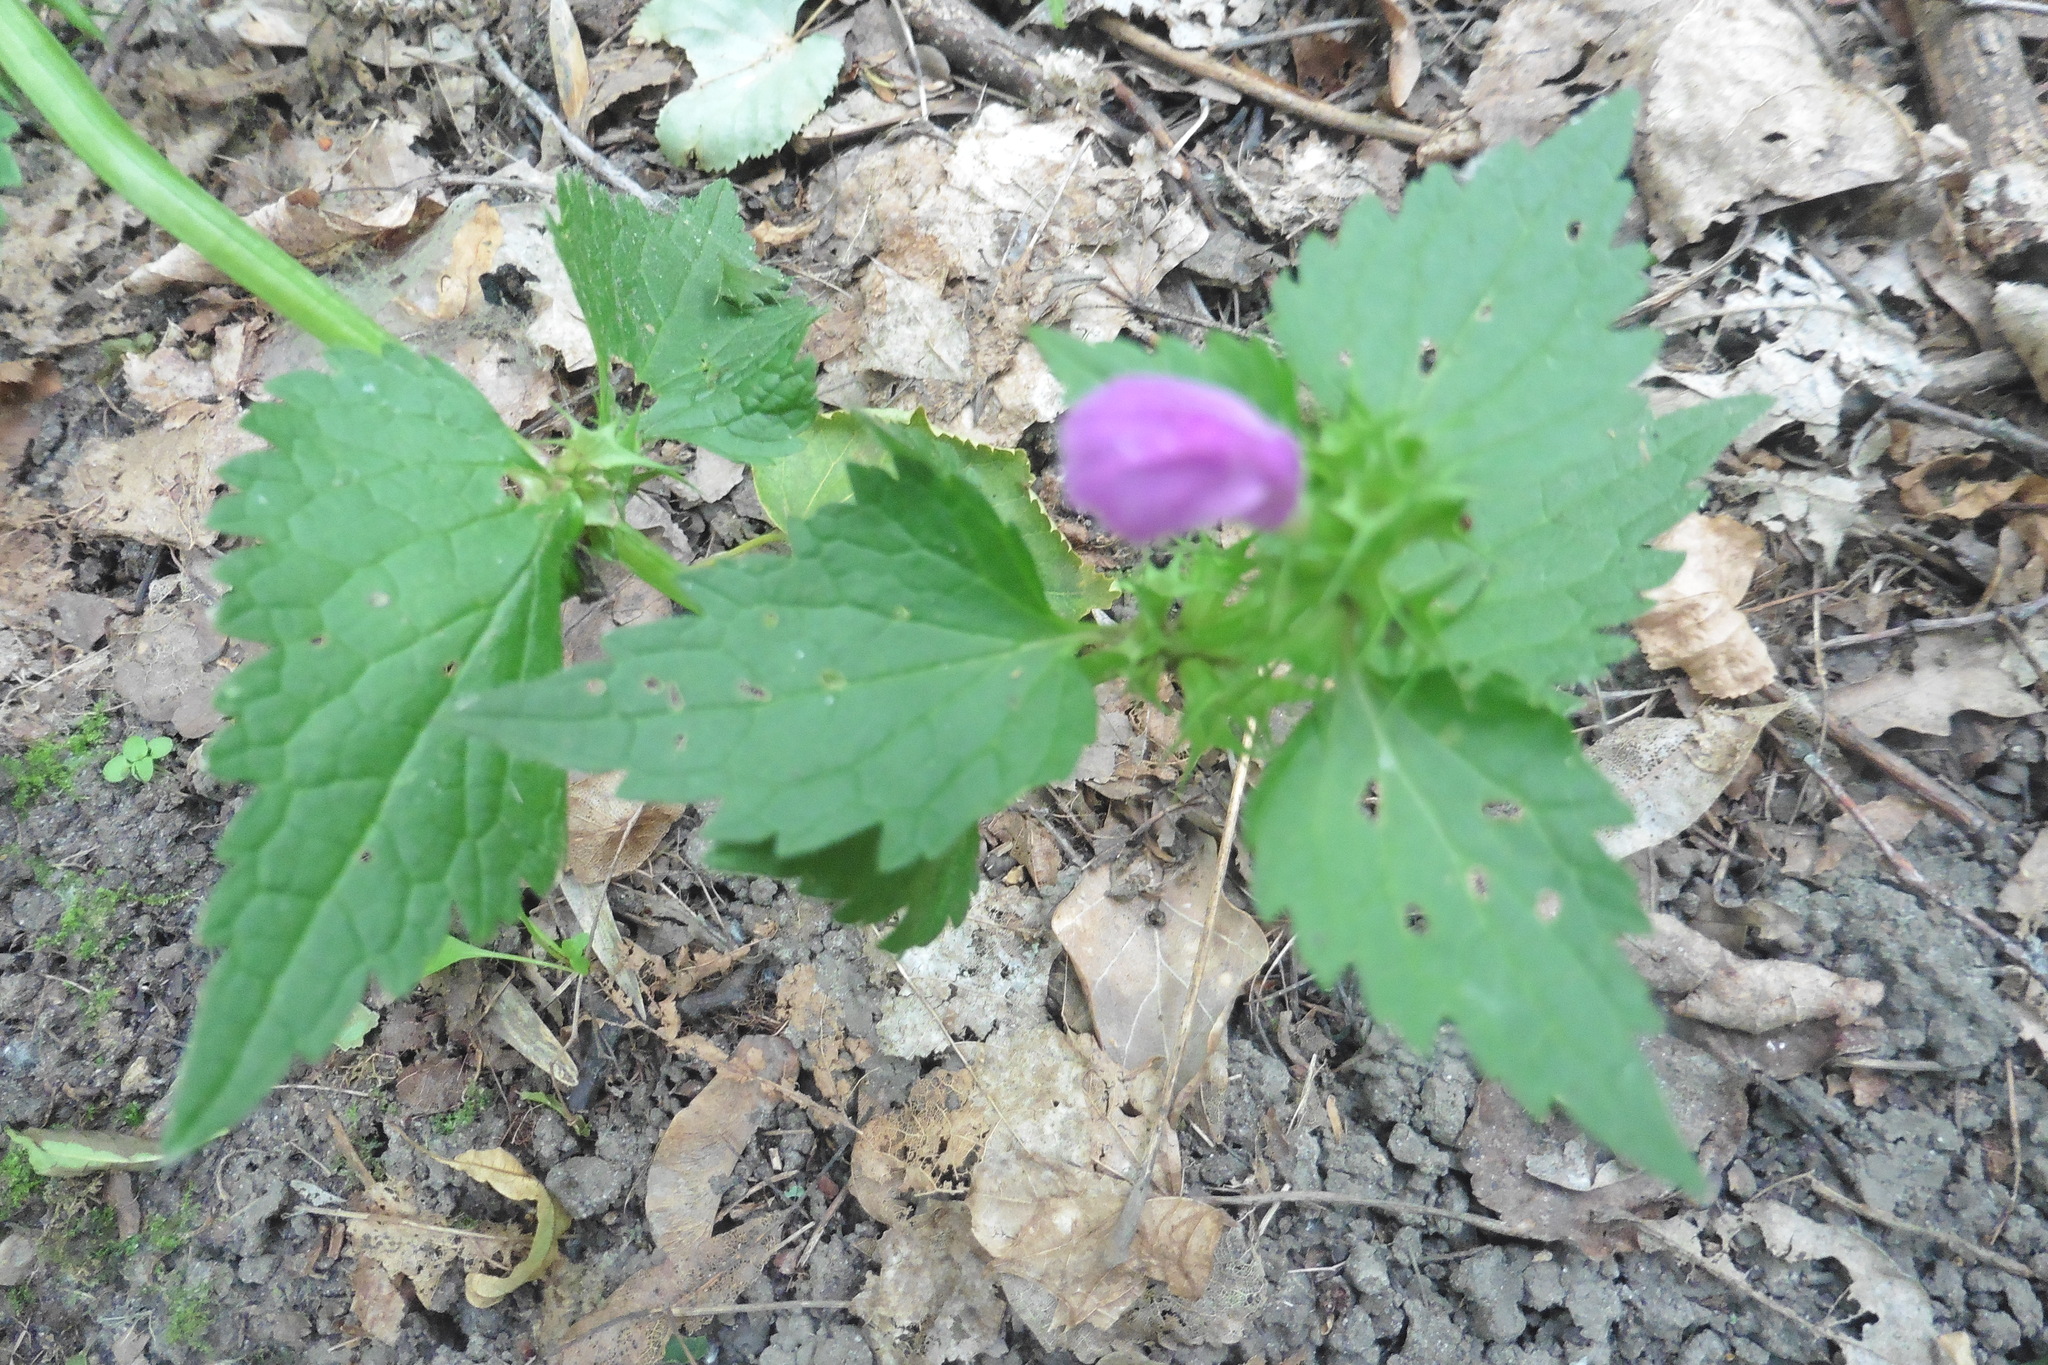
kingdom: Plantae
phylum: Tracheophyta
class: Magnoliopsida
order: Lamiales
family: Lamiaceae
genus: Lamium
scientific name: Lamium maculatum
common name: Spotted dead-nettle
